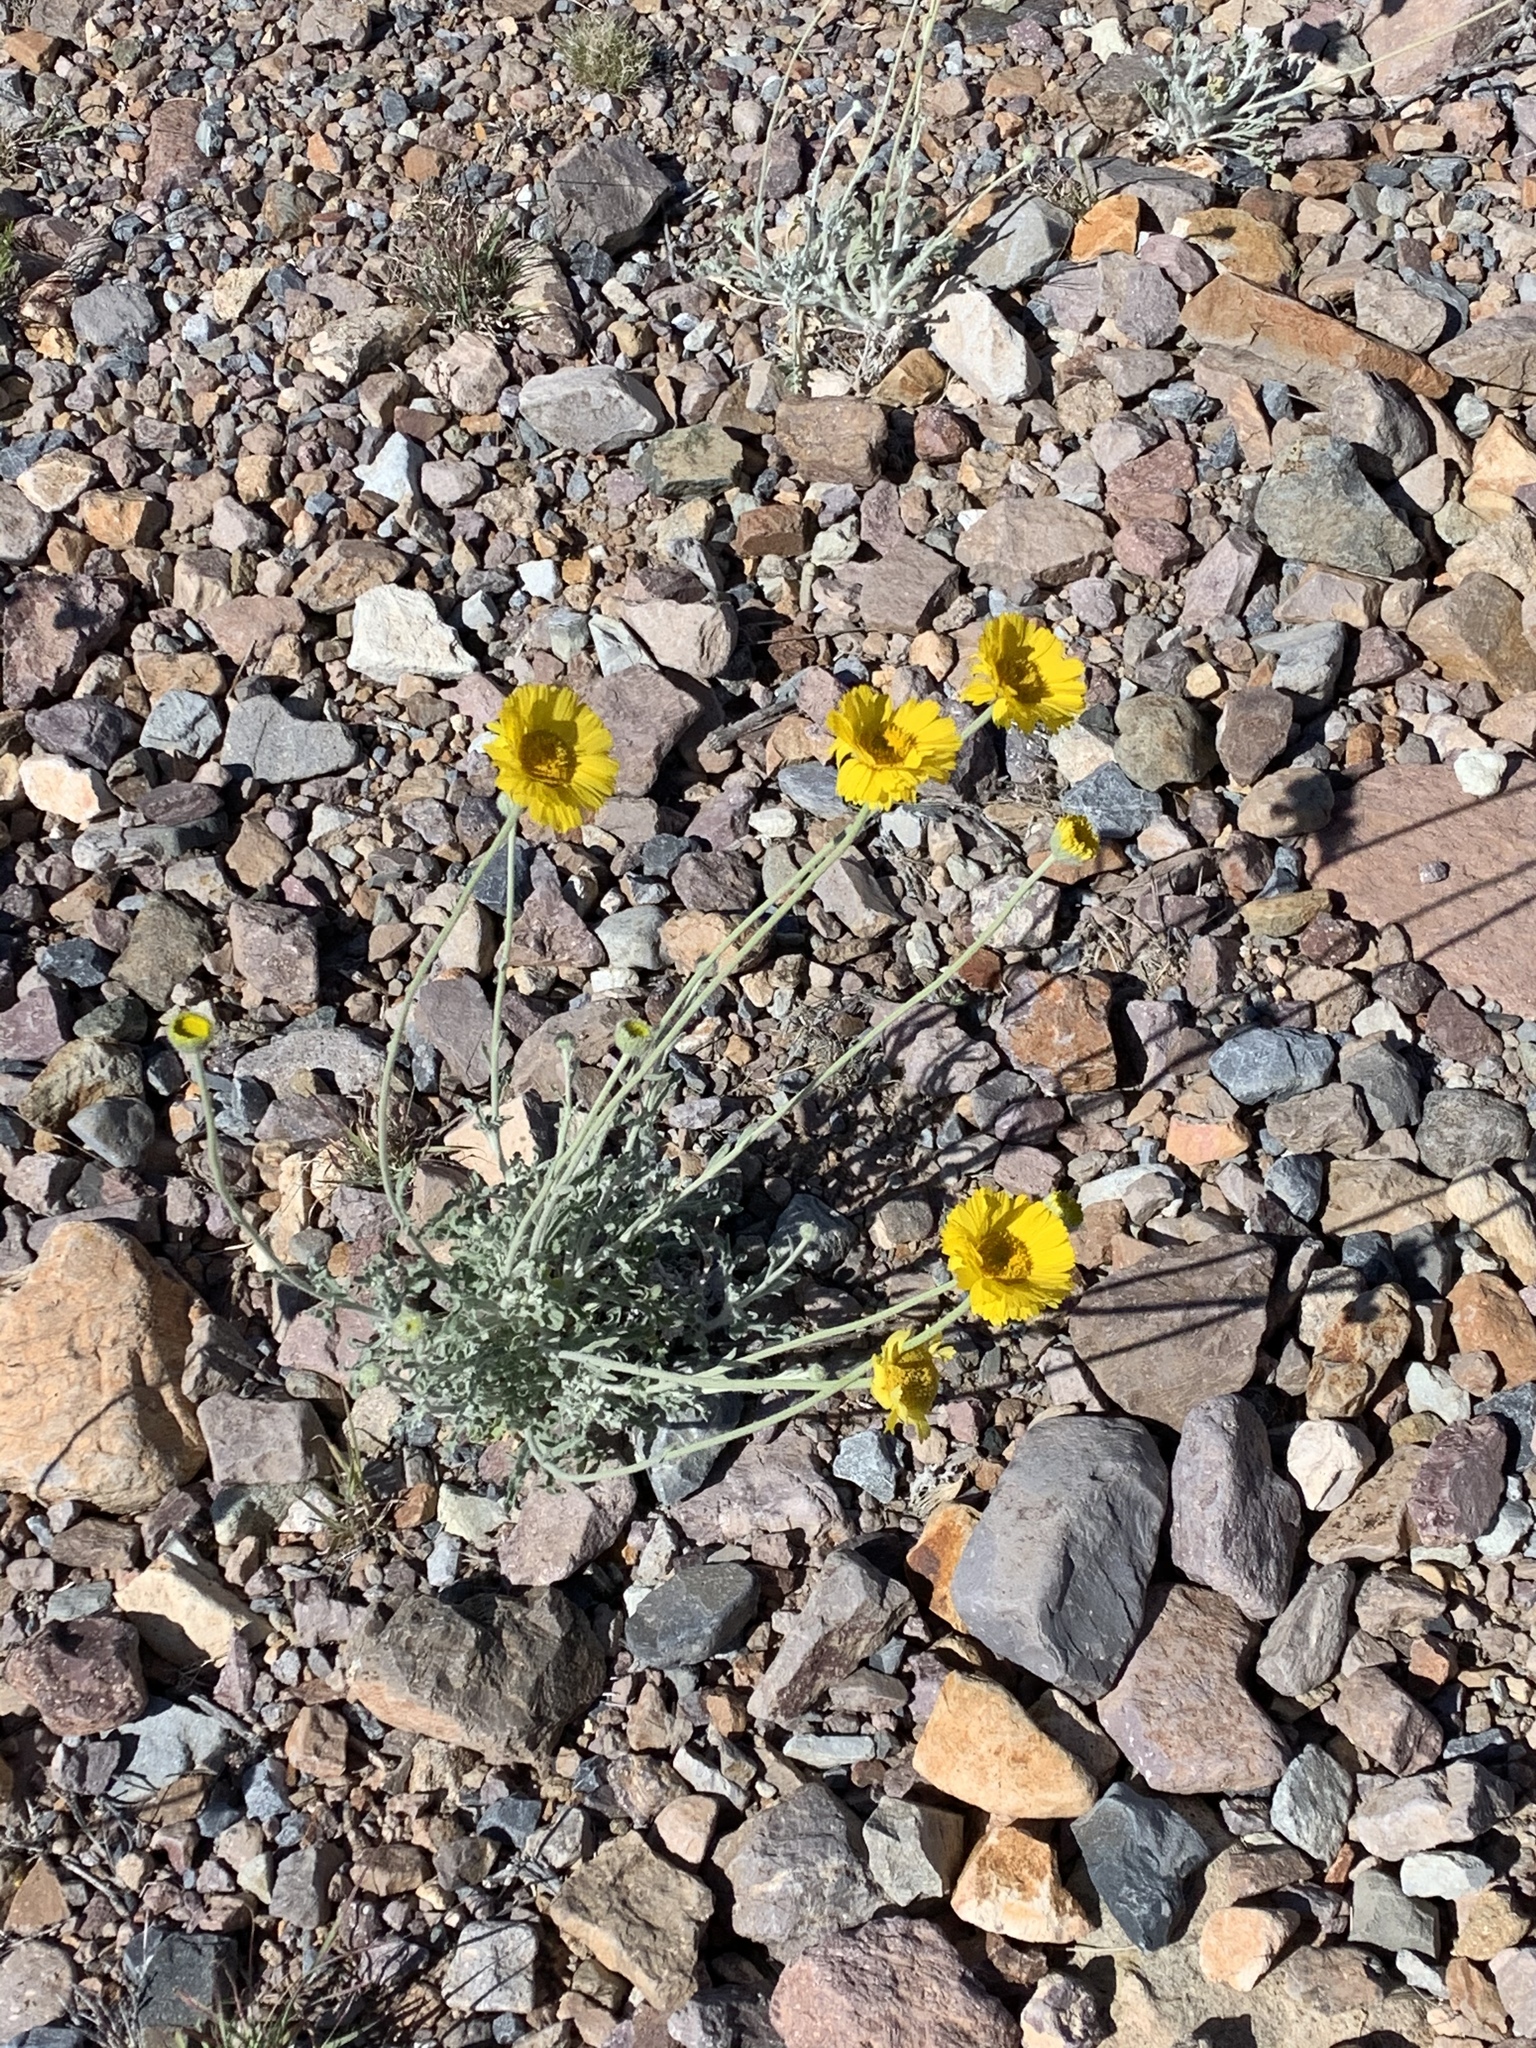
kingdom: Plantae
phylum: Tracheophyta
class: Magnoliopsida
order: Asterales
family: Asteraceae
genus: Baileya
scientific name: Baileya multiradiata
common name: Desert-marigold
